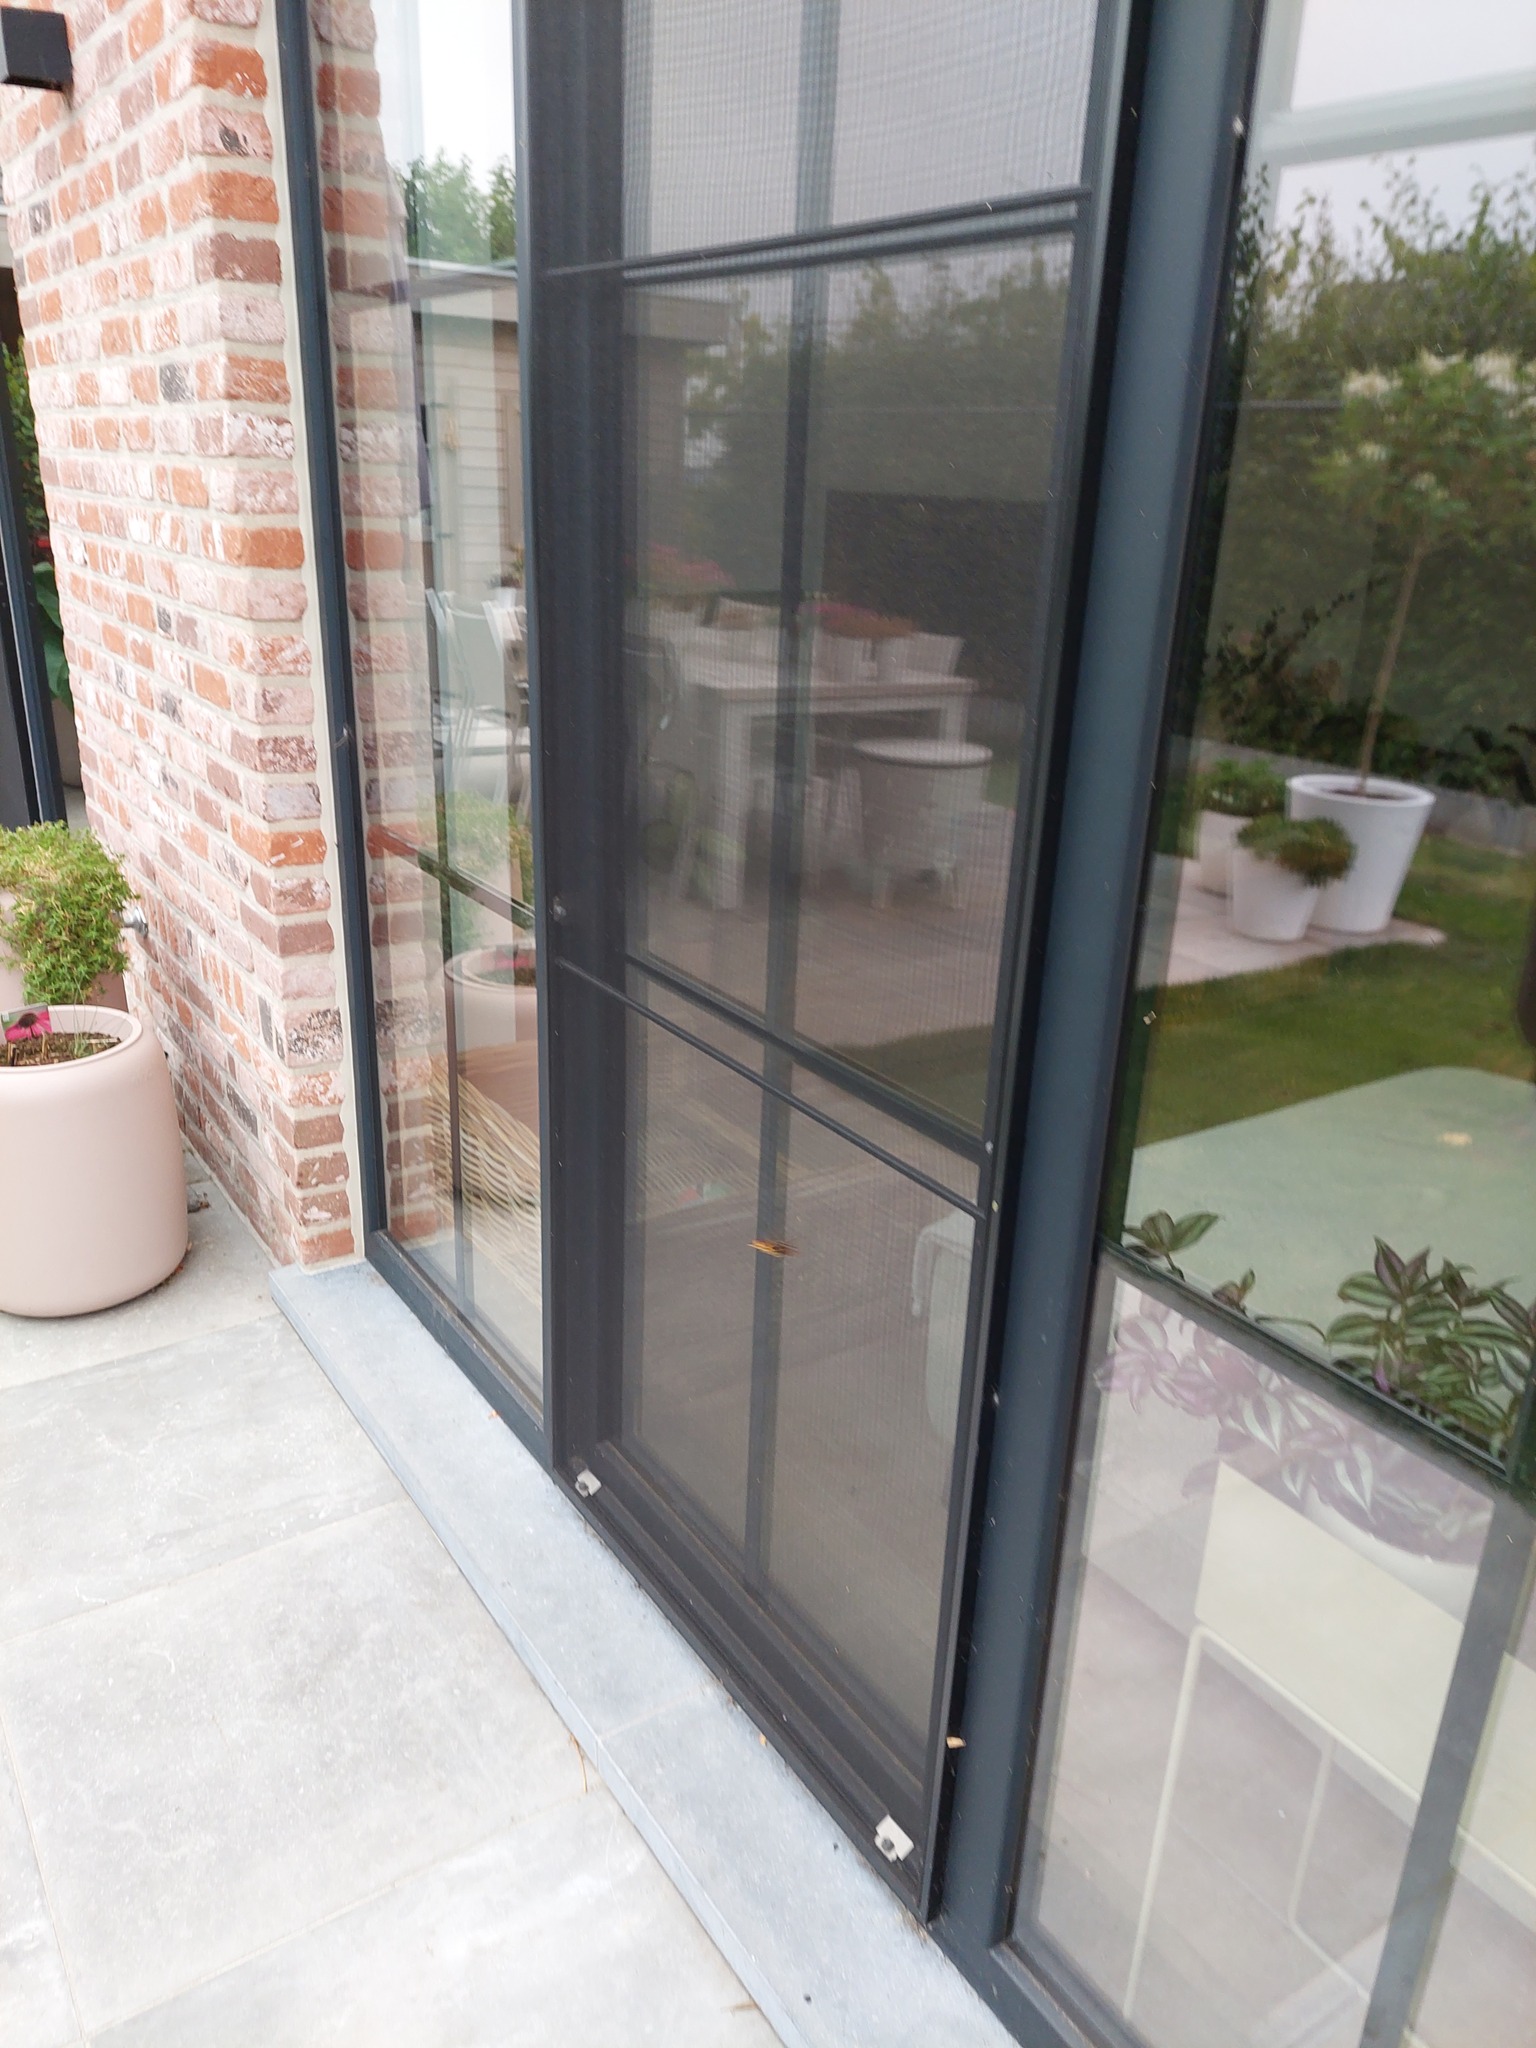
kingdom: Animalia
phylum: Arthropoda
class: Insecta
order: Hymenoptera
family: Vespidae
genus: Vespa
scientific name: Vespa crabro
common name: Hornet
